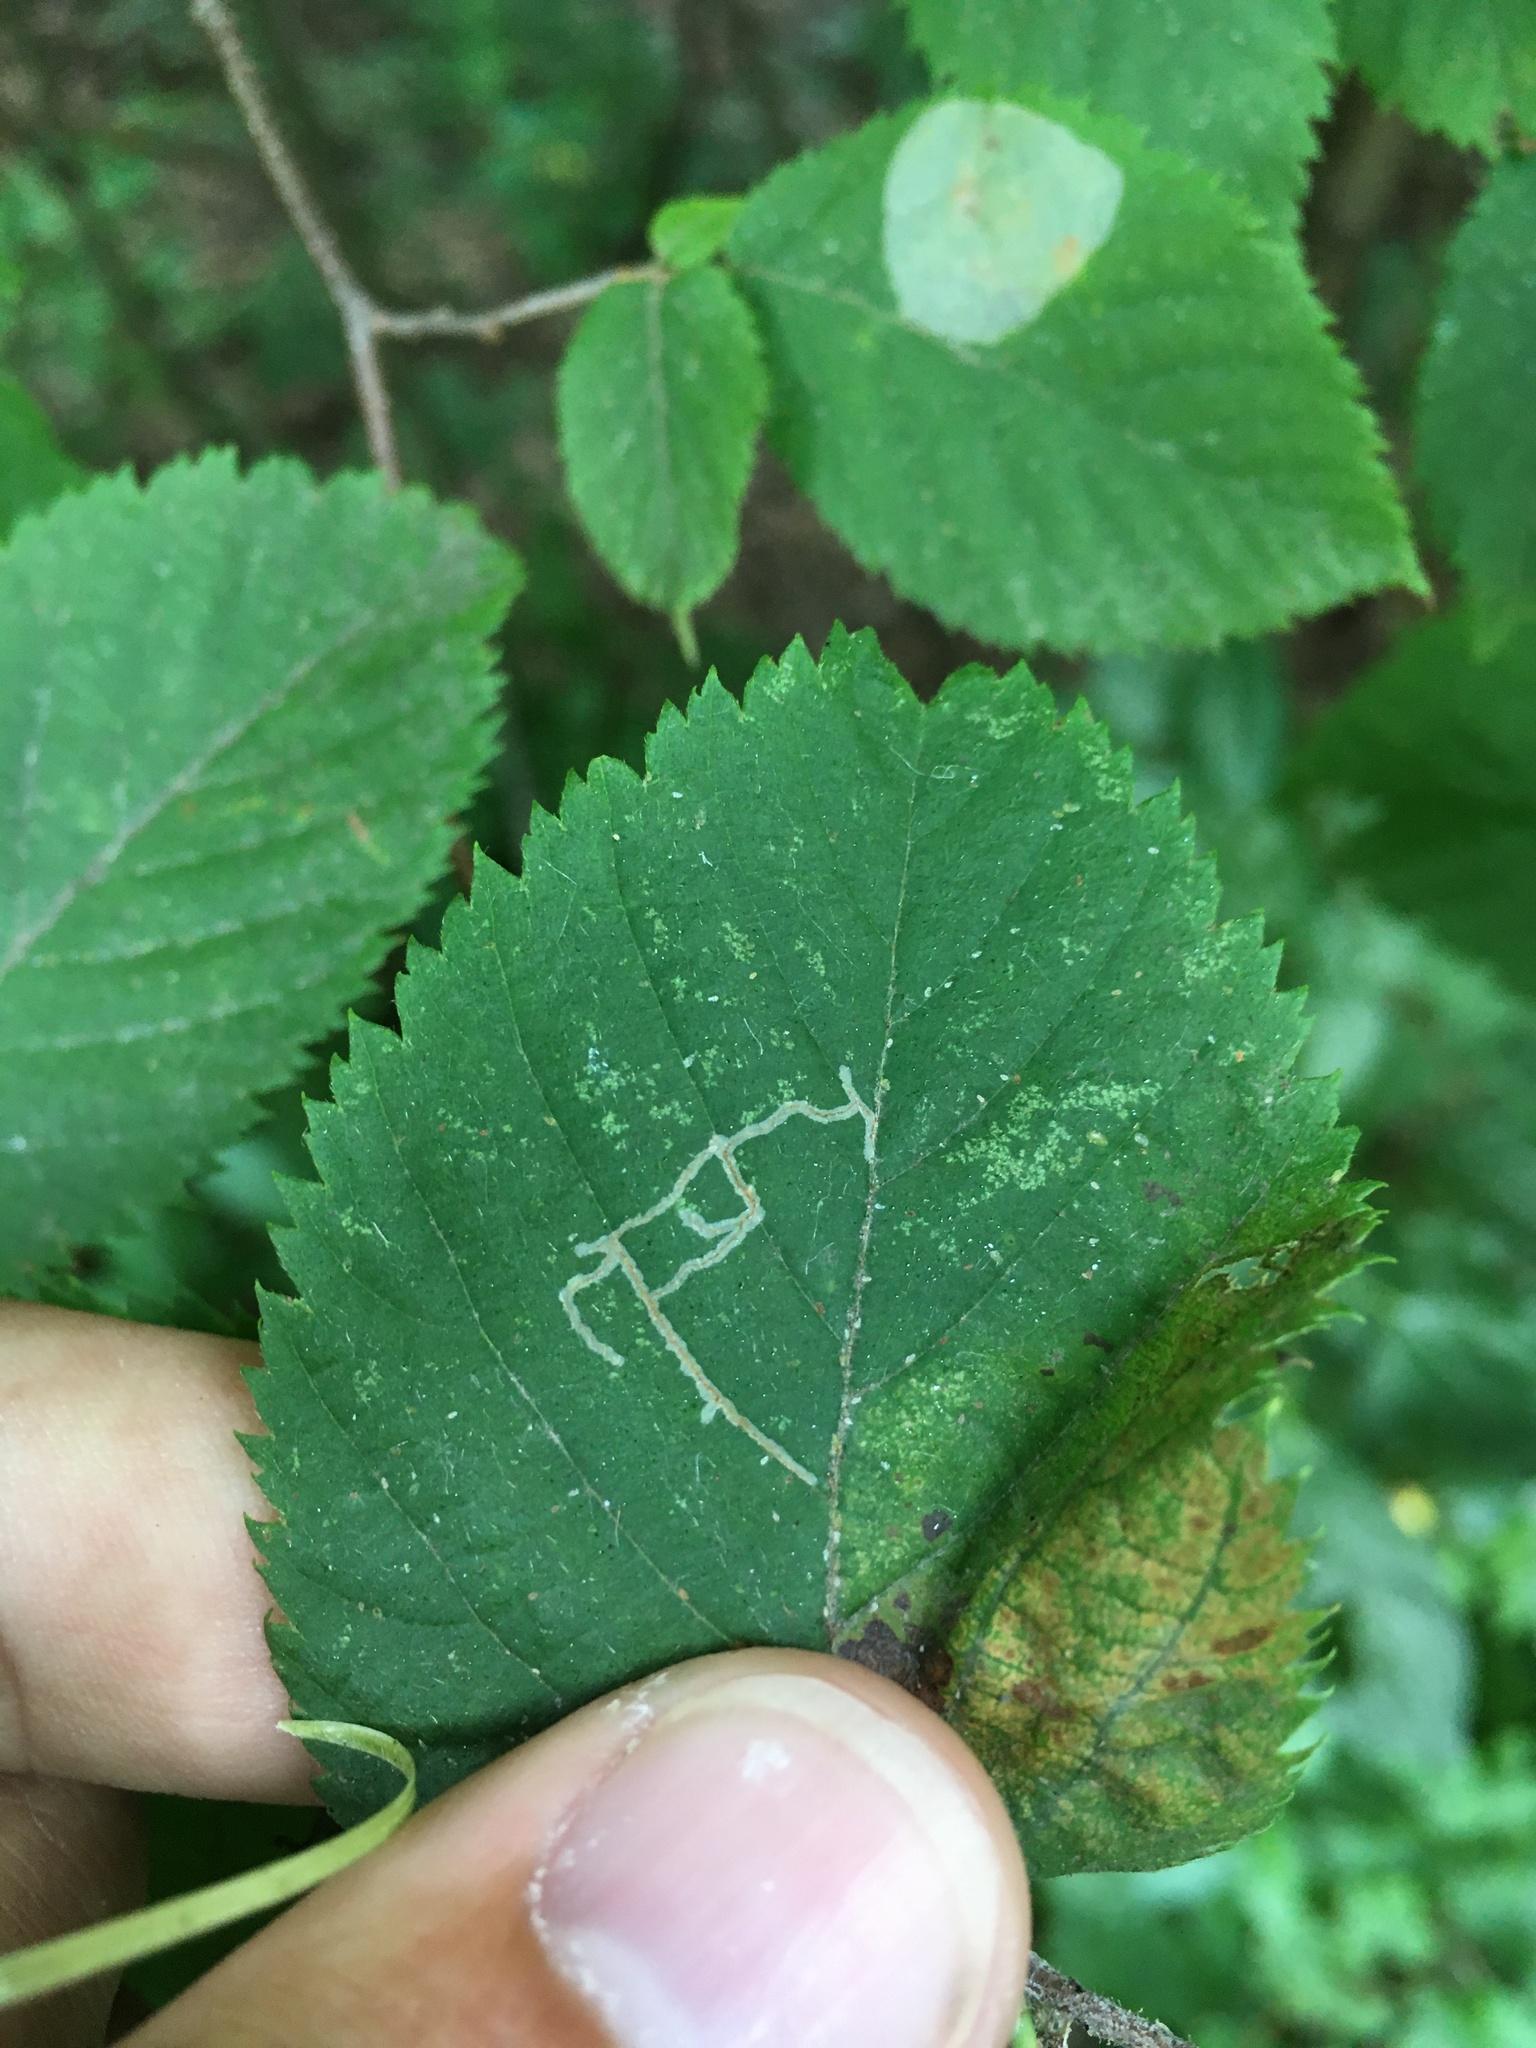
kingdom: Animalia
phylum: Arthropoda
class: Insecta
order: Lepidoptera
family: Gracillariidae
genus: Caloptilia
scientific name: Caloptilia ostryaeella
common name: Ironwood leafcone moth
